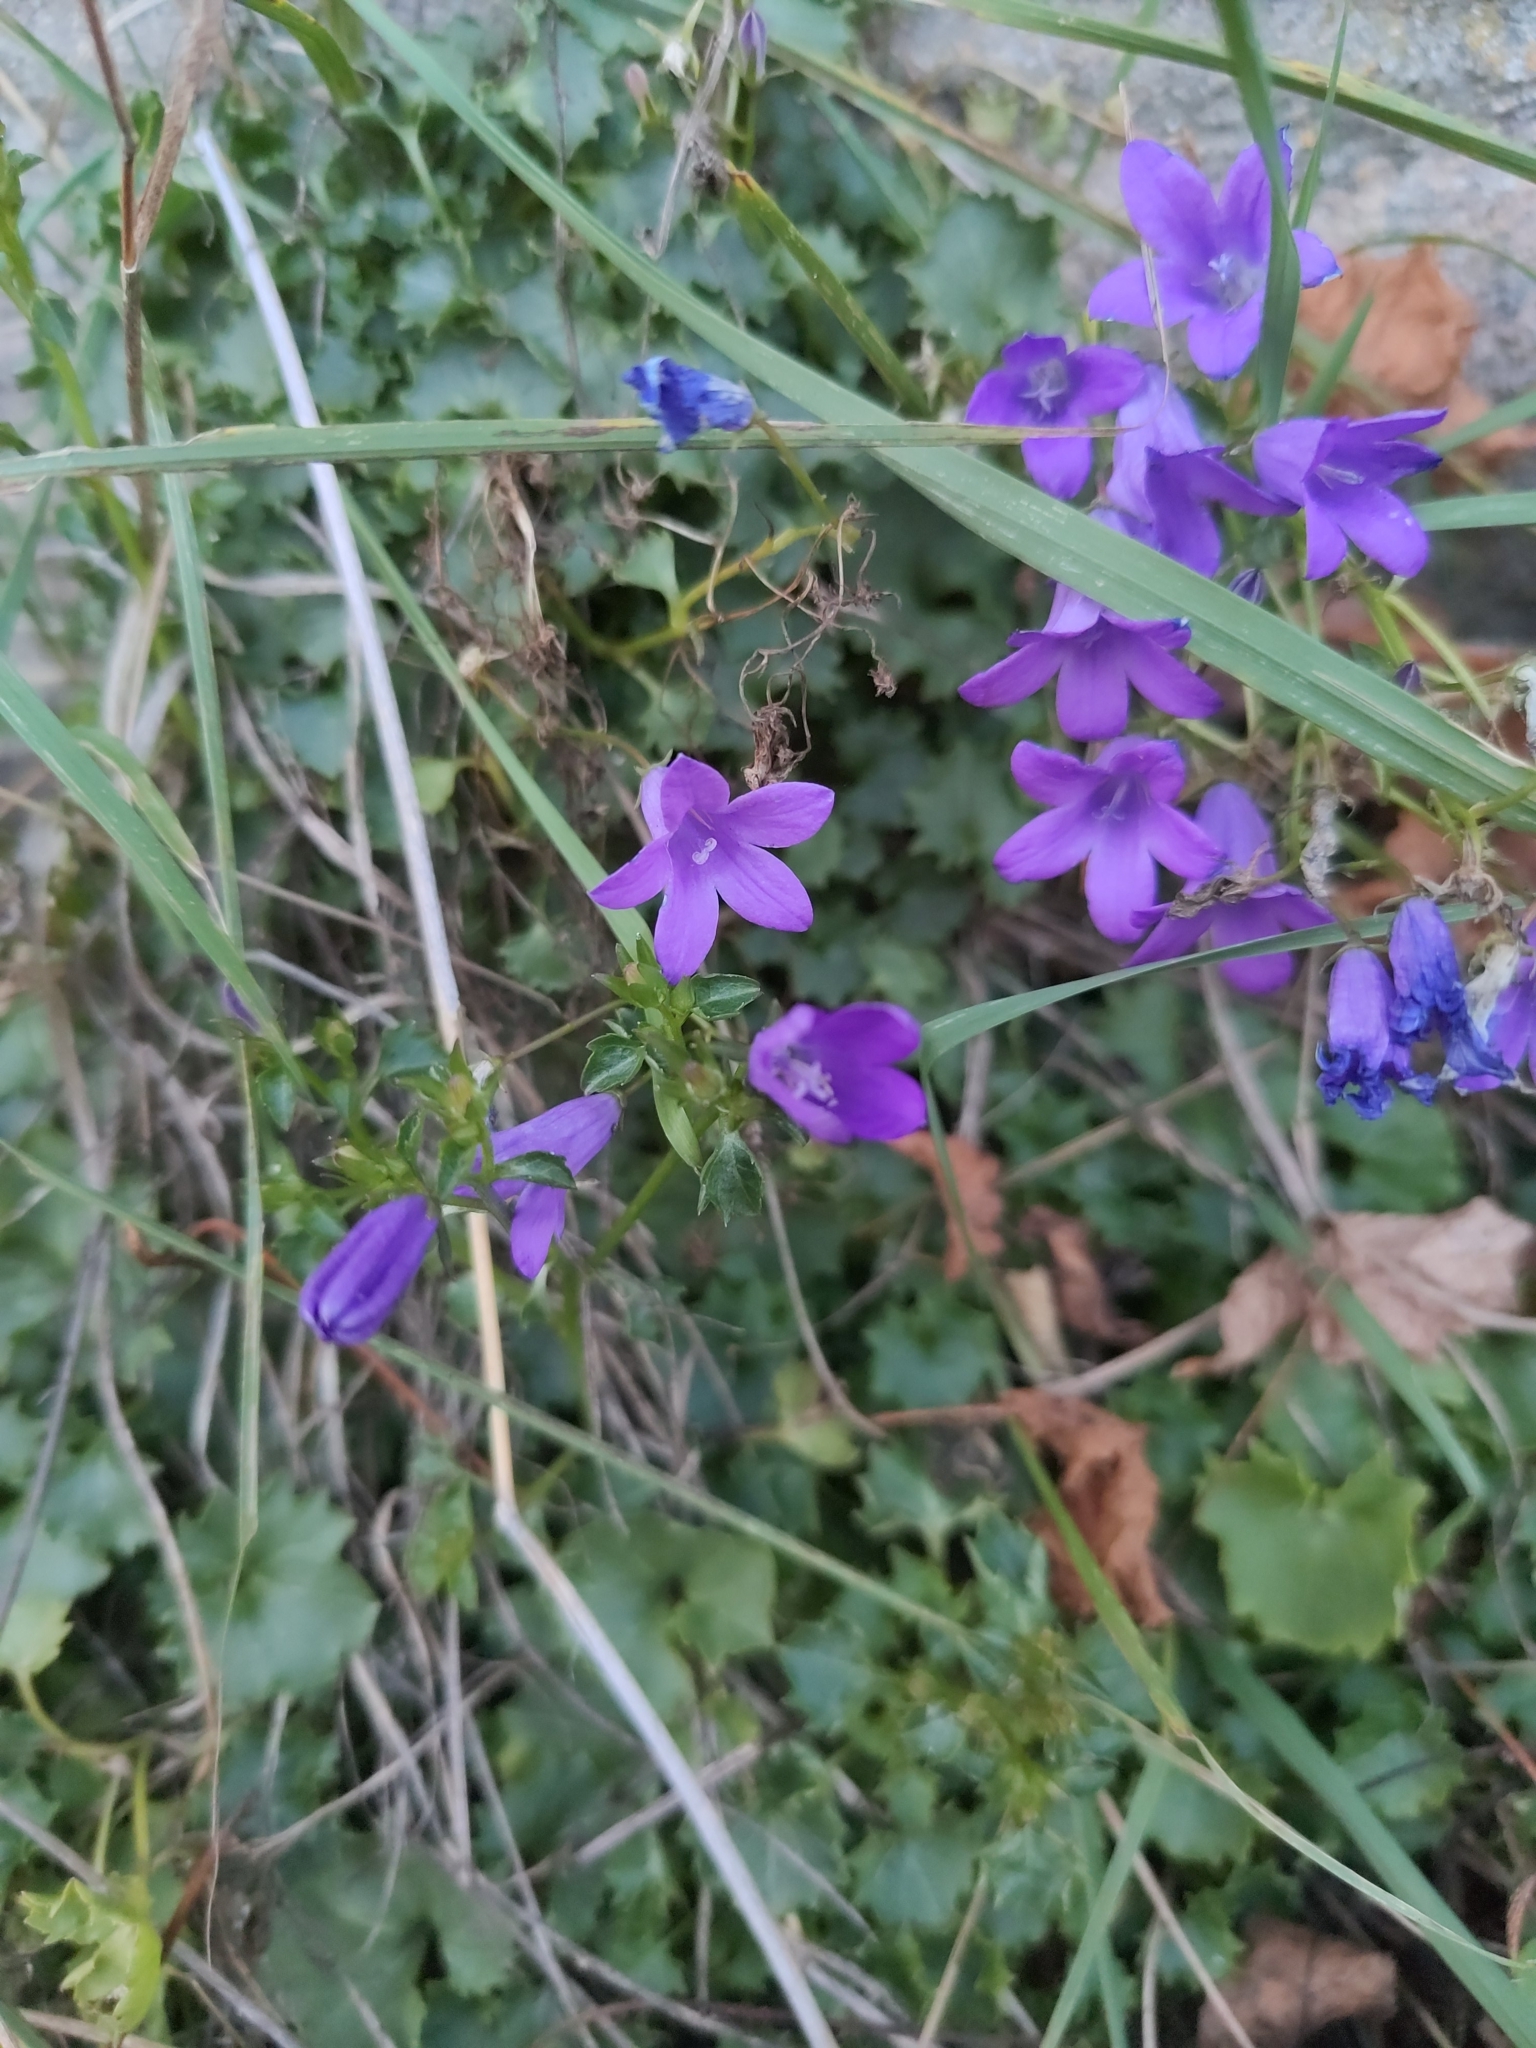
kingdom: Plantae
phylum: Tracheophyta
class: Magnoliopsida
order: Asterales
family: Campanulaceae
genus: Campanula
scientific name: Campanula poscharskyana
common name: Trailing bellflower
